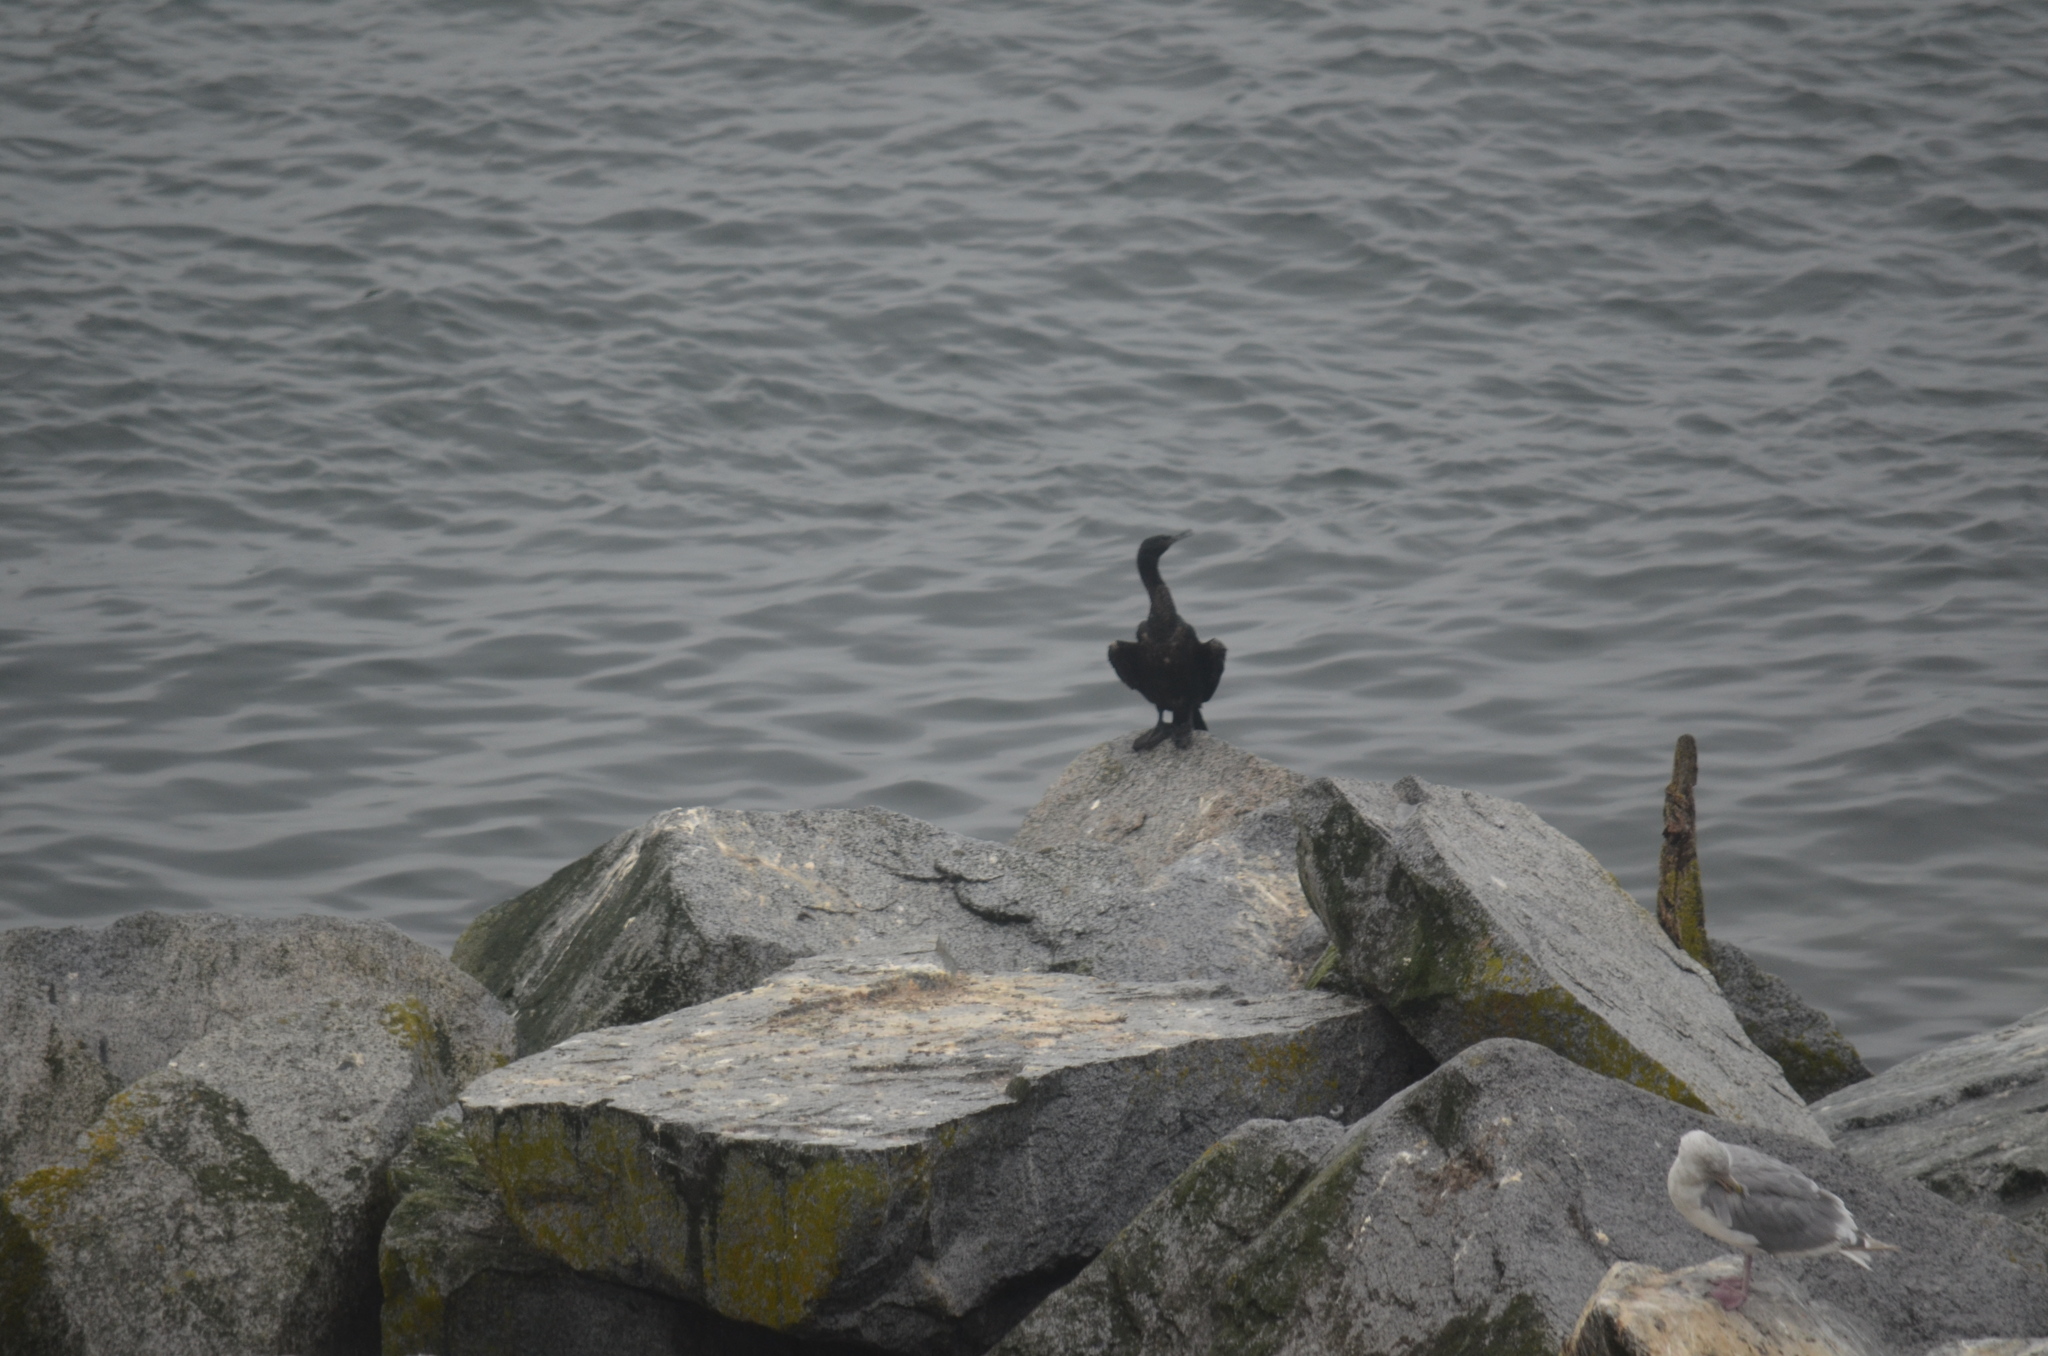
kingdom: Animalia
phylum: Chordata
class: Aves
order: Suliformes
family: Phalacrocoracidae
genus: Phalacrocorax
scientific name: Phalacrocorax pelagicus
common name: Pelagic cormorant
